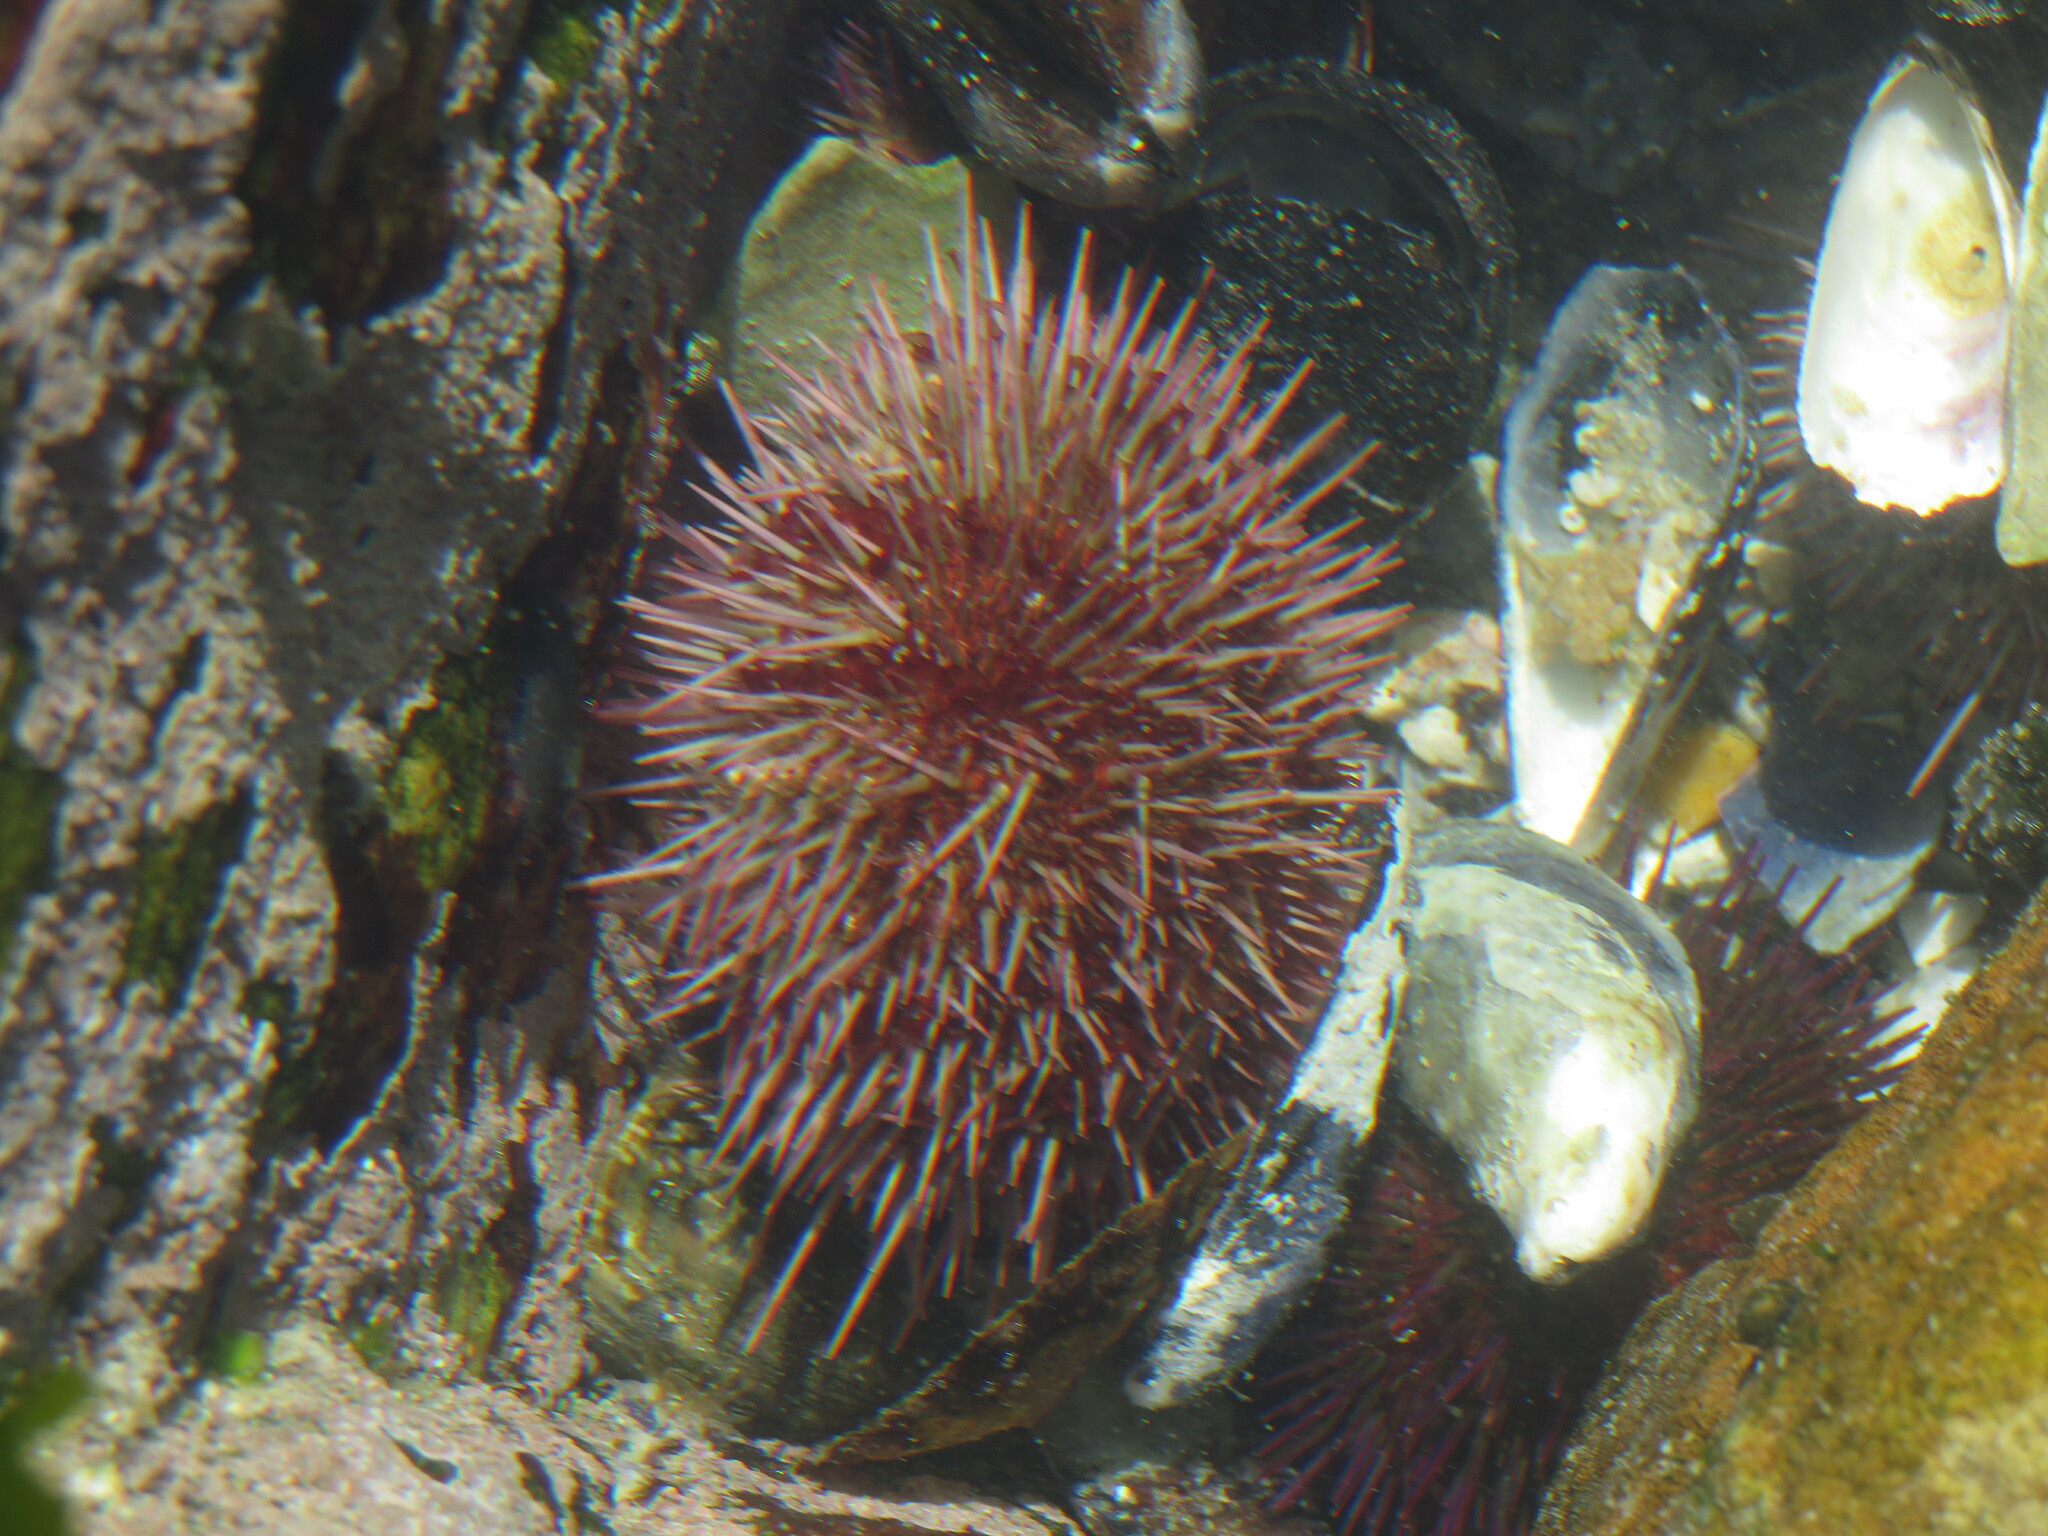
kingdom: Animalia
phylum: Echinodermata
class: Echinoidea
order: Camarodonta
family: Parechinidae
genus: Parechinus
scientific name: Parechinus angulosus
